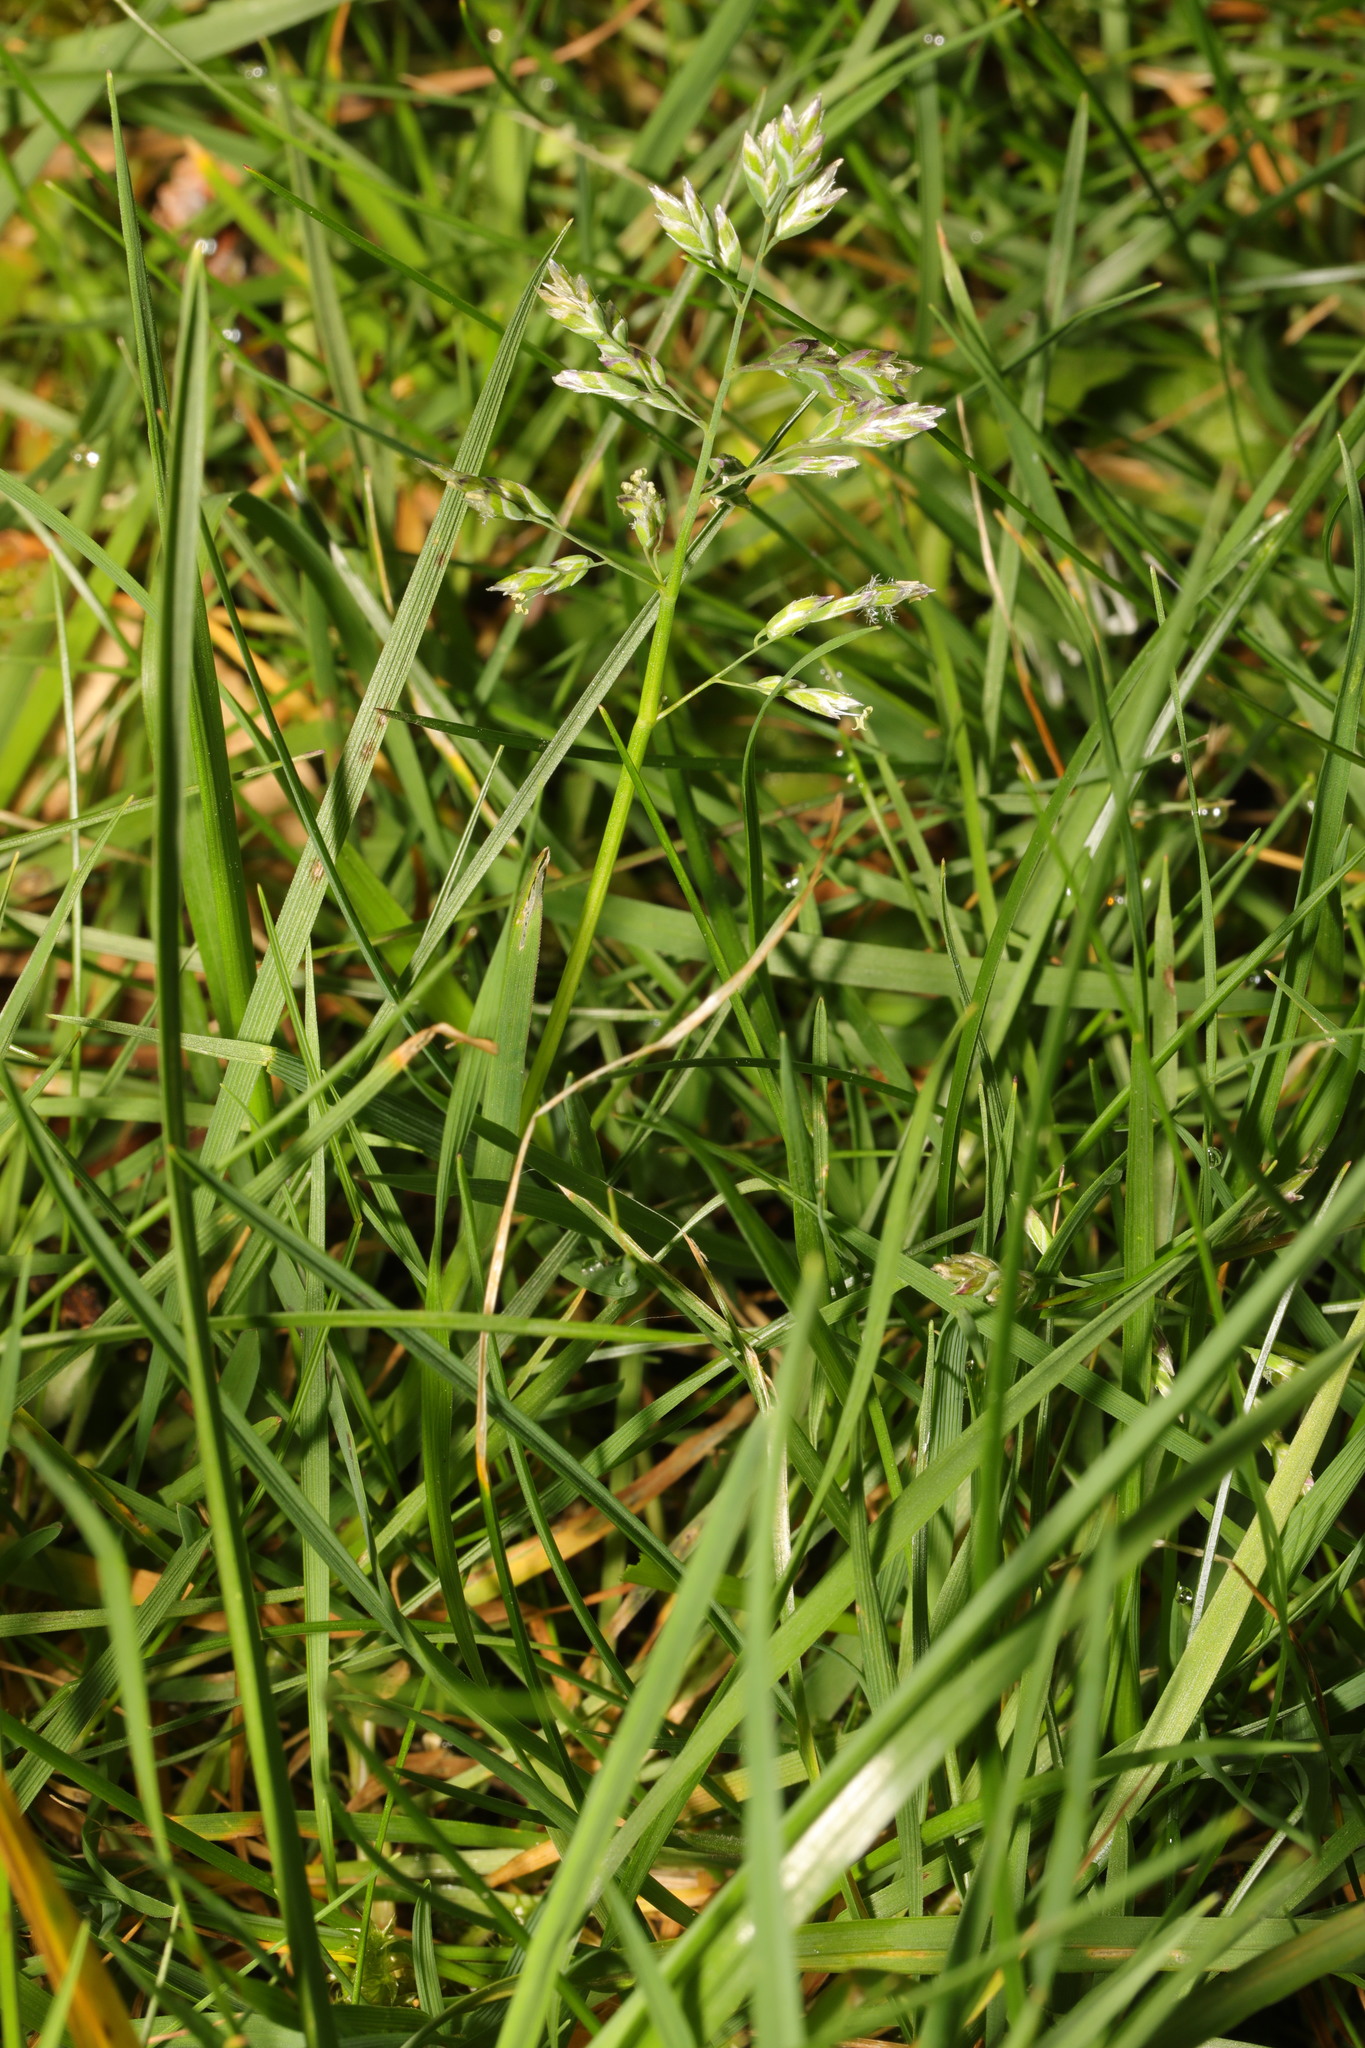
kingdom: Plantae
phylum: Tracheophyta
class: Liliopsida
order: Poales
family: Poaceae
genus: Poa
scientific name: Poa annua
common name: Annual bluegrass
